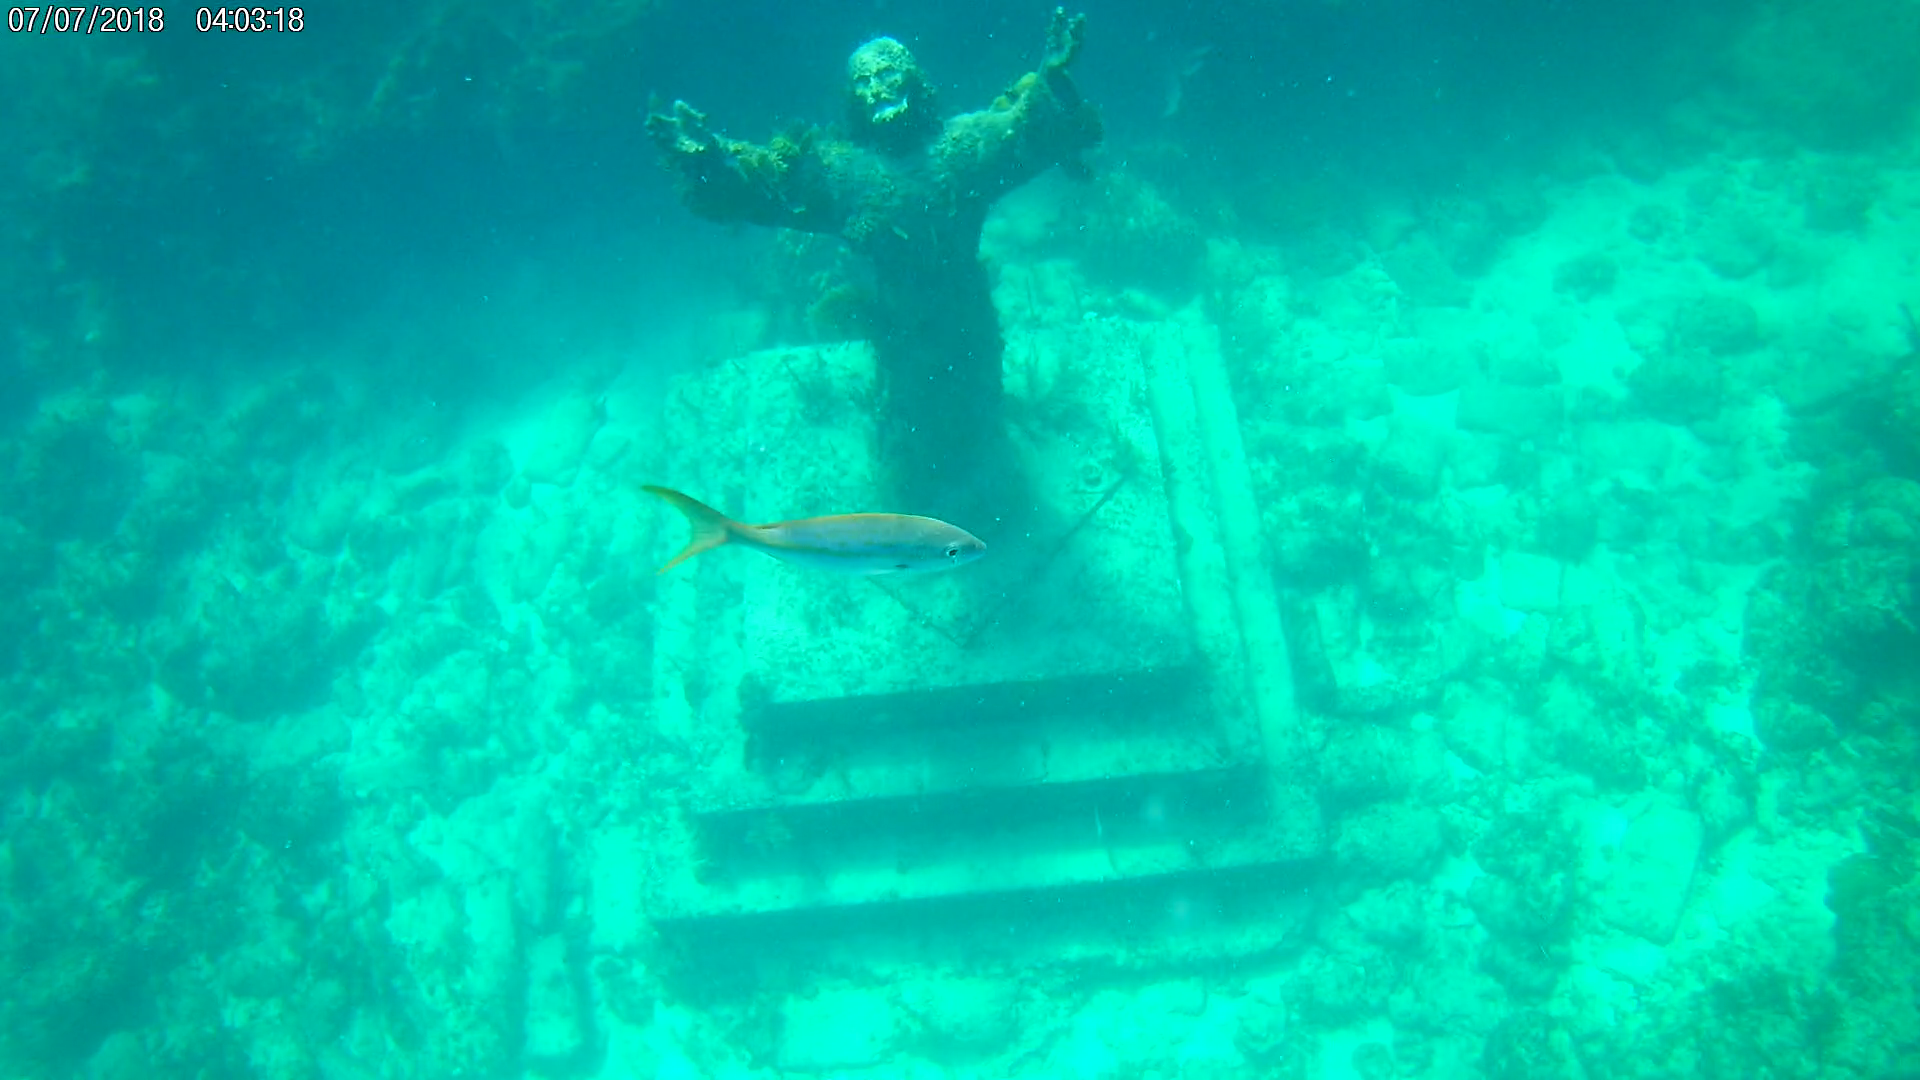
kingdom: Animalia
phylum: Chordata
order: Perciformes
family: Lutjanidae
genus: Ocyurus
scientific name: Ocyurus chrysurus
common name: Yellowtail snapper
